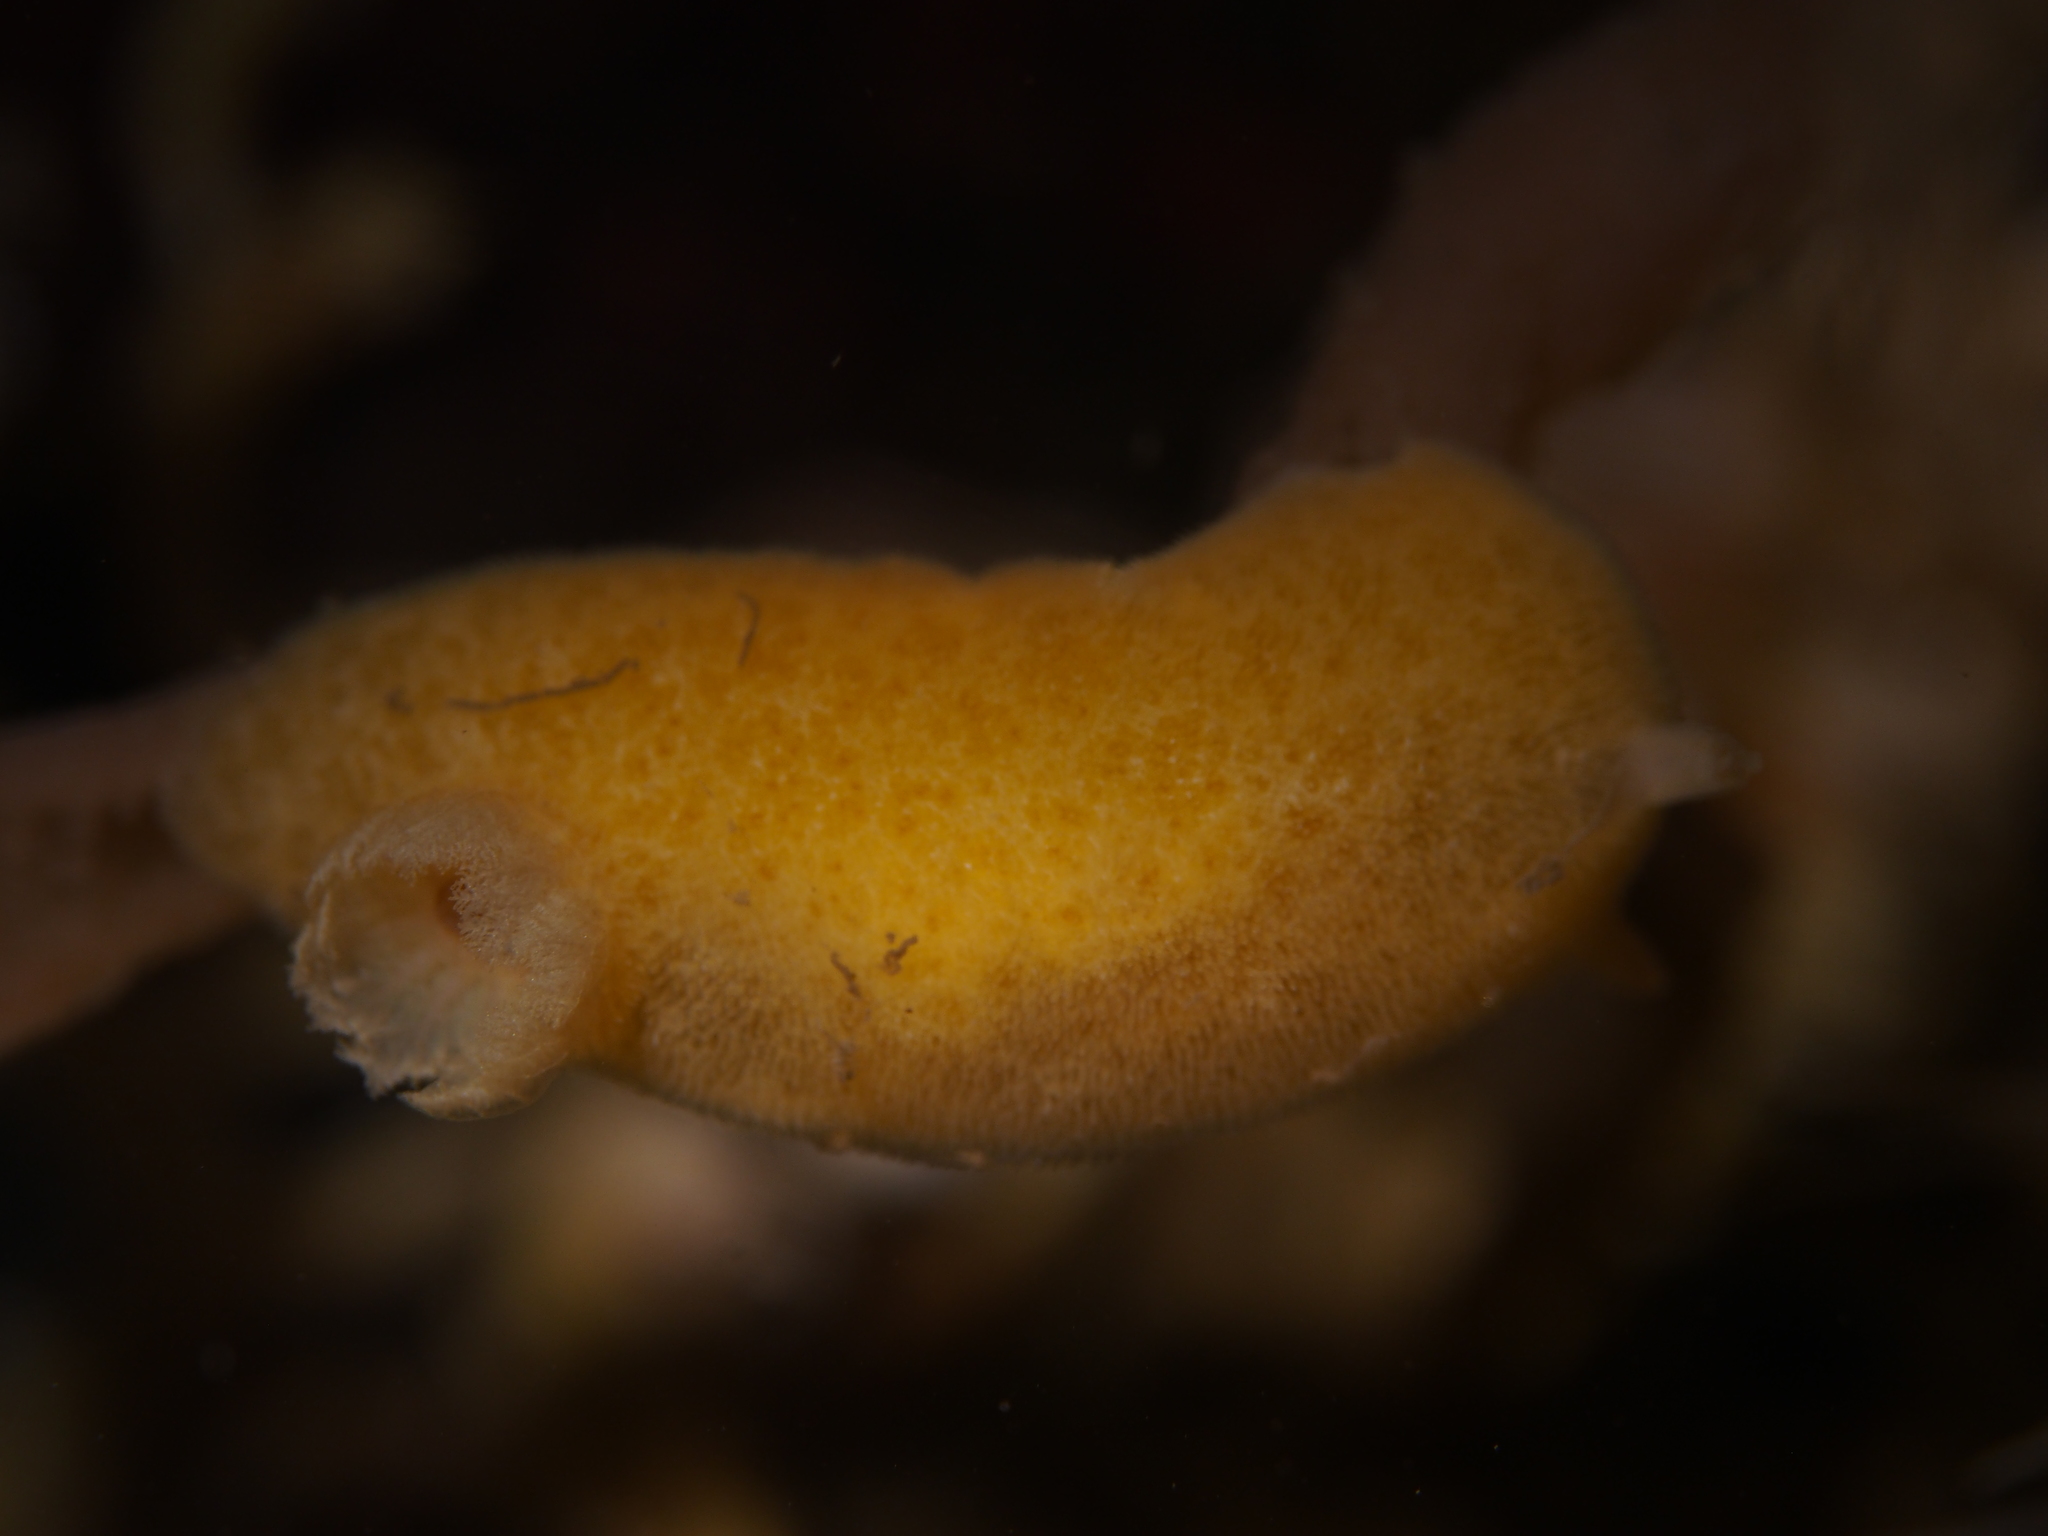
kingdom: Animalia
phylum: Mollusca
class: Gastropoda
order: Nudibranchia
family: Discodorididae
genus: Jorunna
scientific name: Jorunna tomentosa
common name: Grey sea slug
